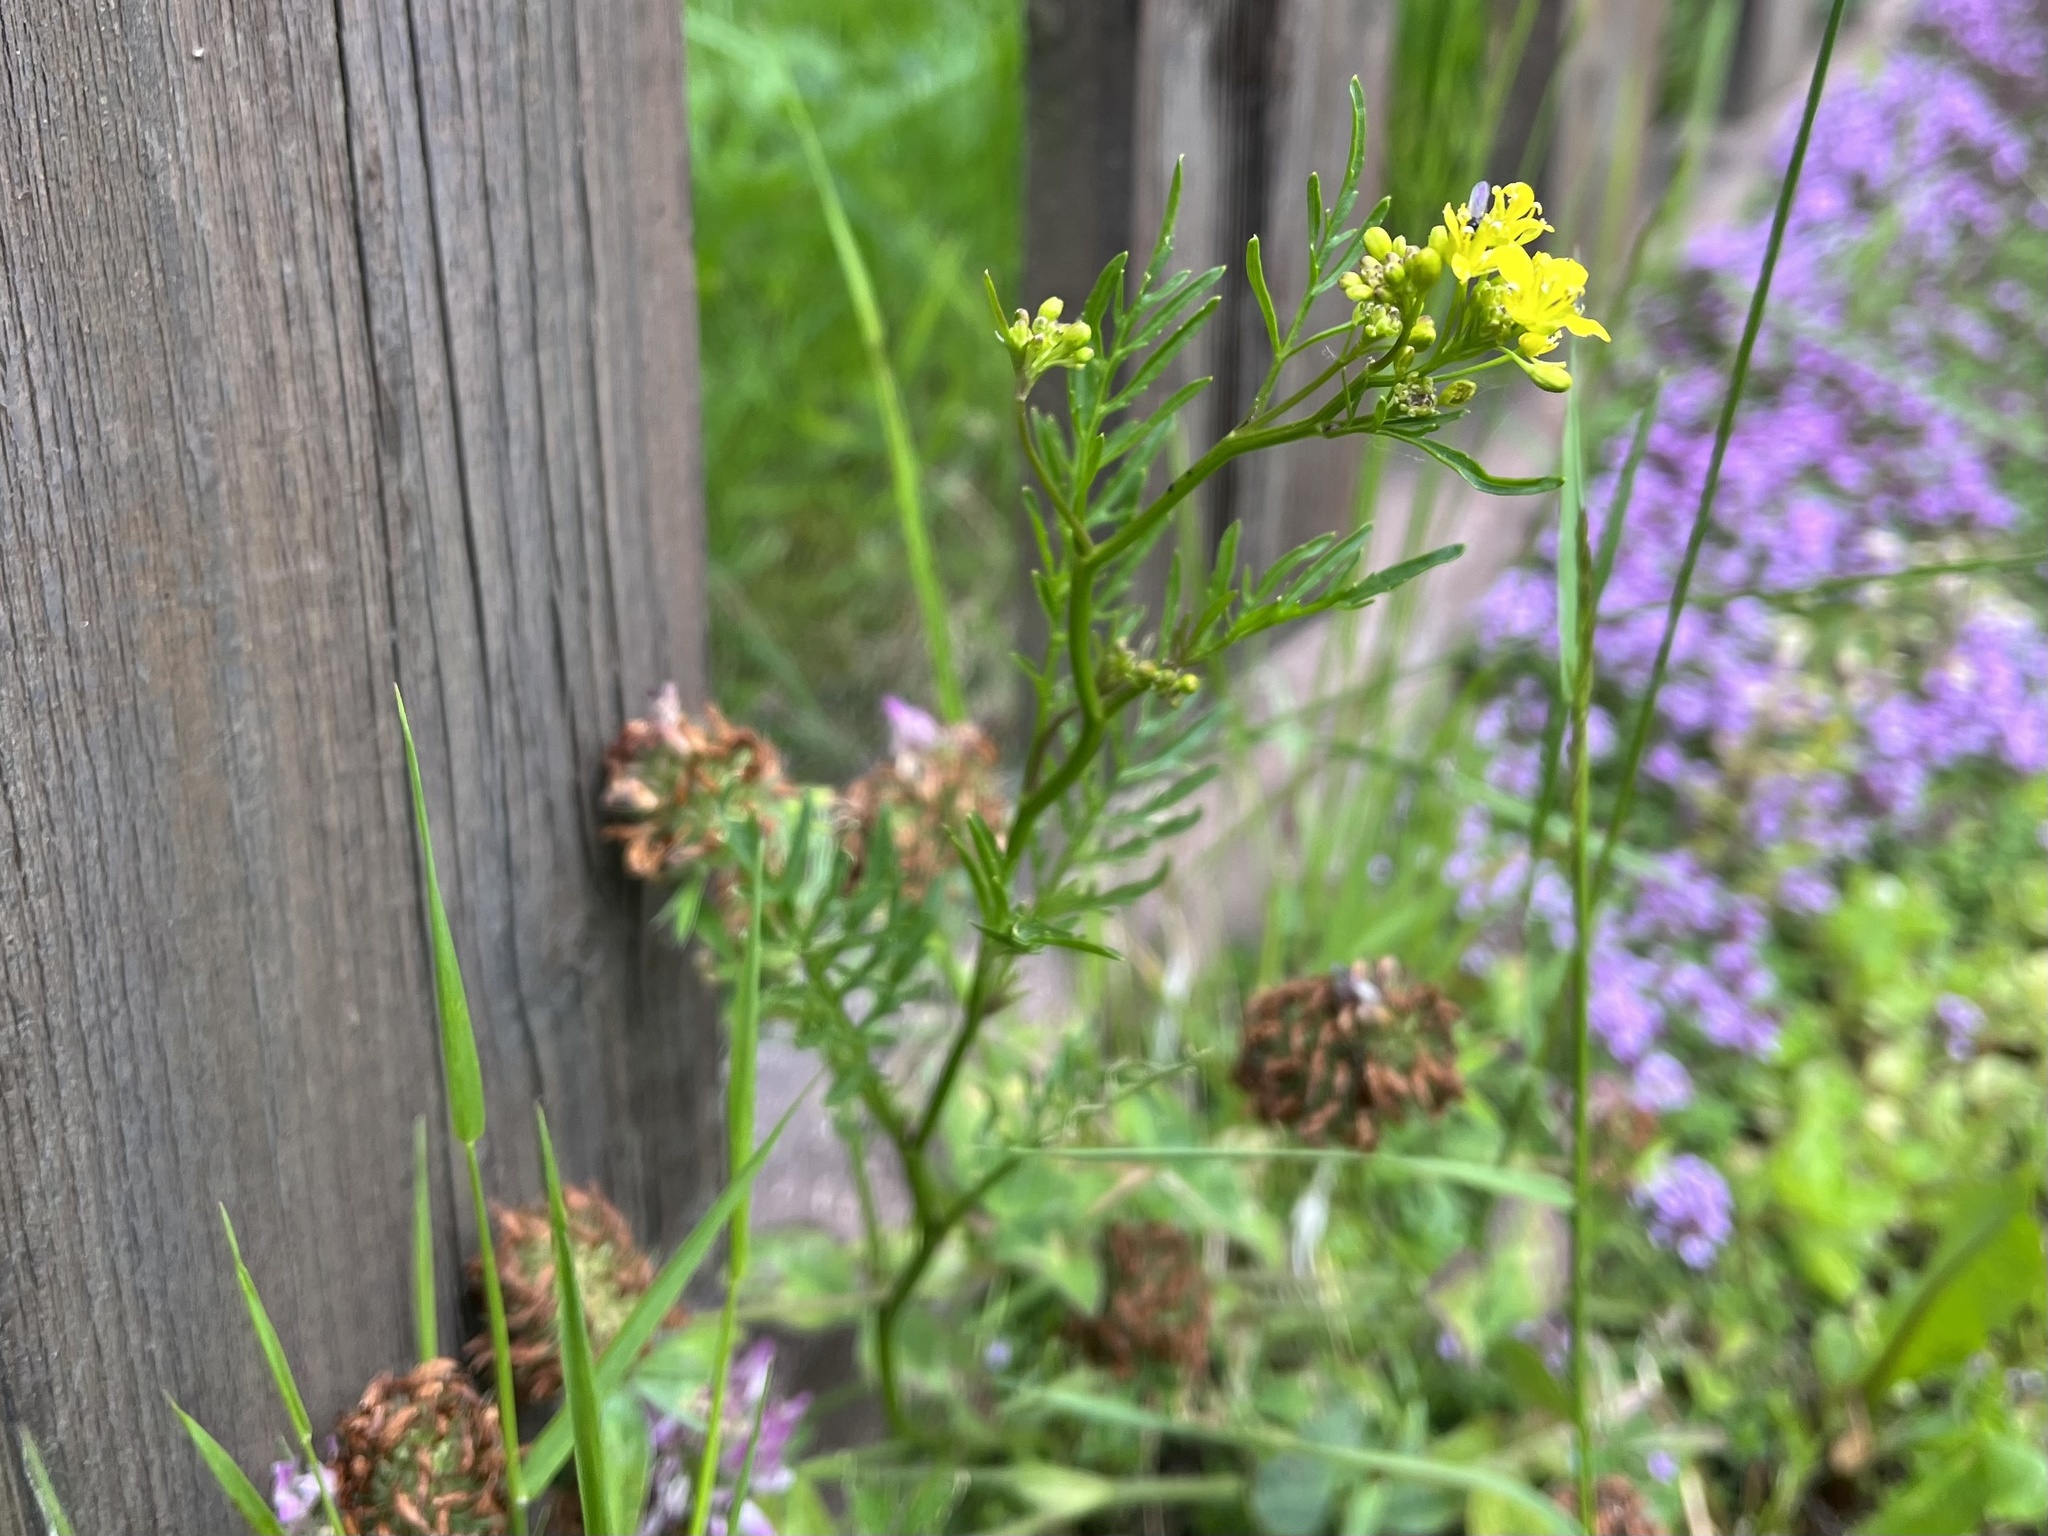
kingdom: Plantae
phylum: Tracheophyta
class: Magnoliopsida
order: Brassicales
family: Brassicaceae
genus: Rorippa
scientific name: Rorippa sylvestris
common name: Creeping yellowcress
